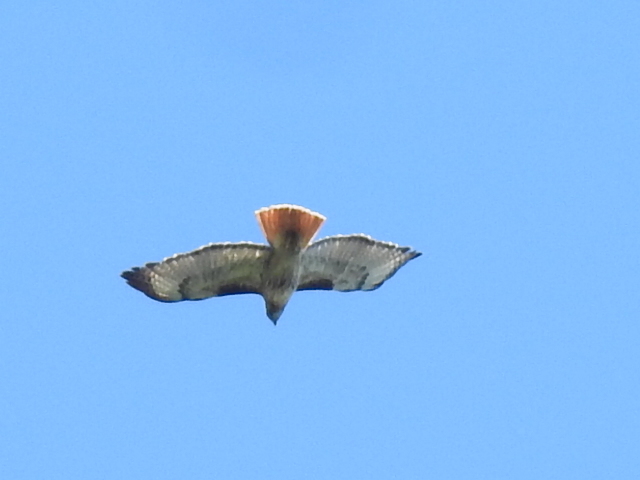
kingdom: Animalia
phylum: Chordata
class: Aves
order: Accipitriformes
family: Accipitridae
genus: Buteo
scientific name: Buteo jamaicensis
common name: Red-tailed hawk
